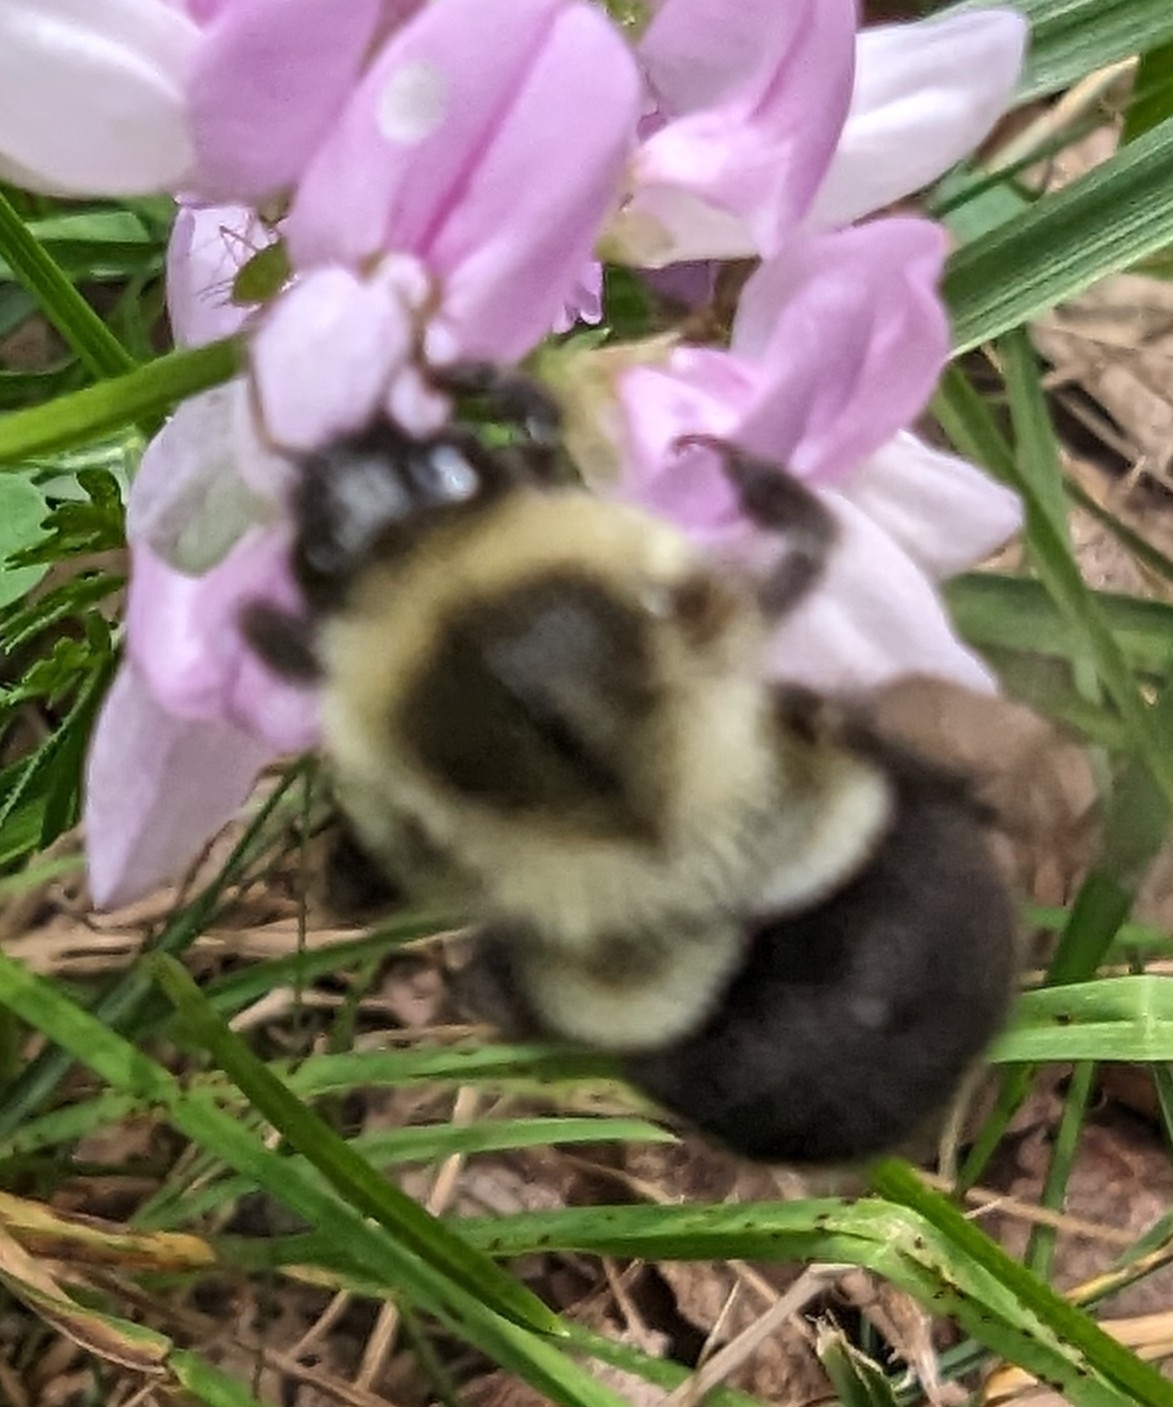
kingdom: Animalia
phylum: Arthropoda
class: Insecta
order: Hymenoptera
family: Apidae
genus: Bombus
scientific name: Bombus impatiens
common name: Common eastern bumble bee
